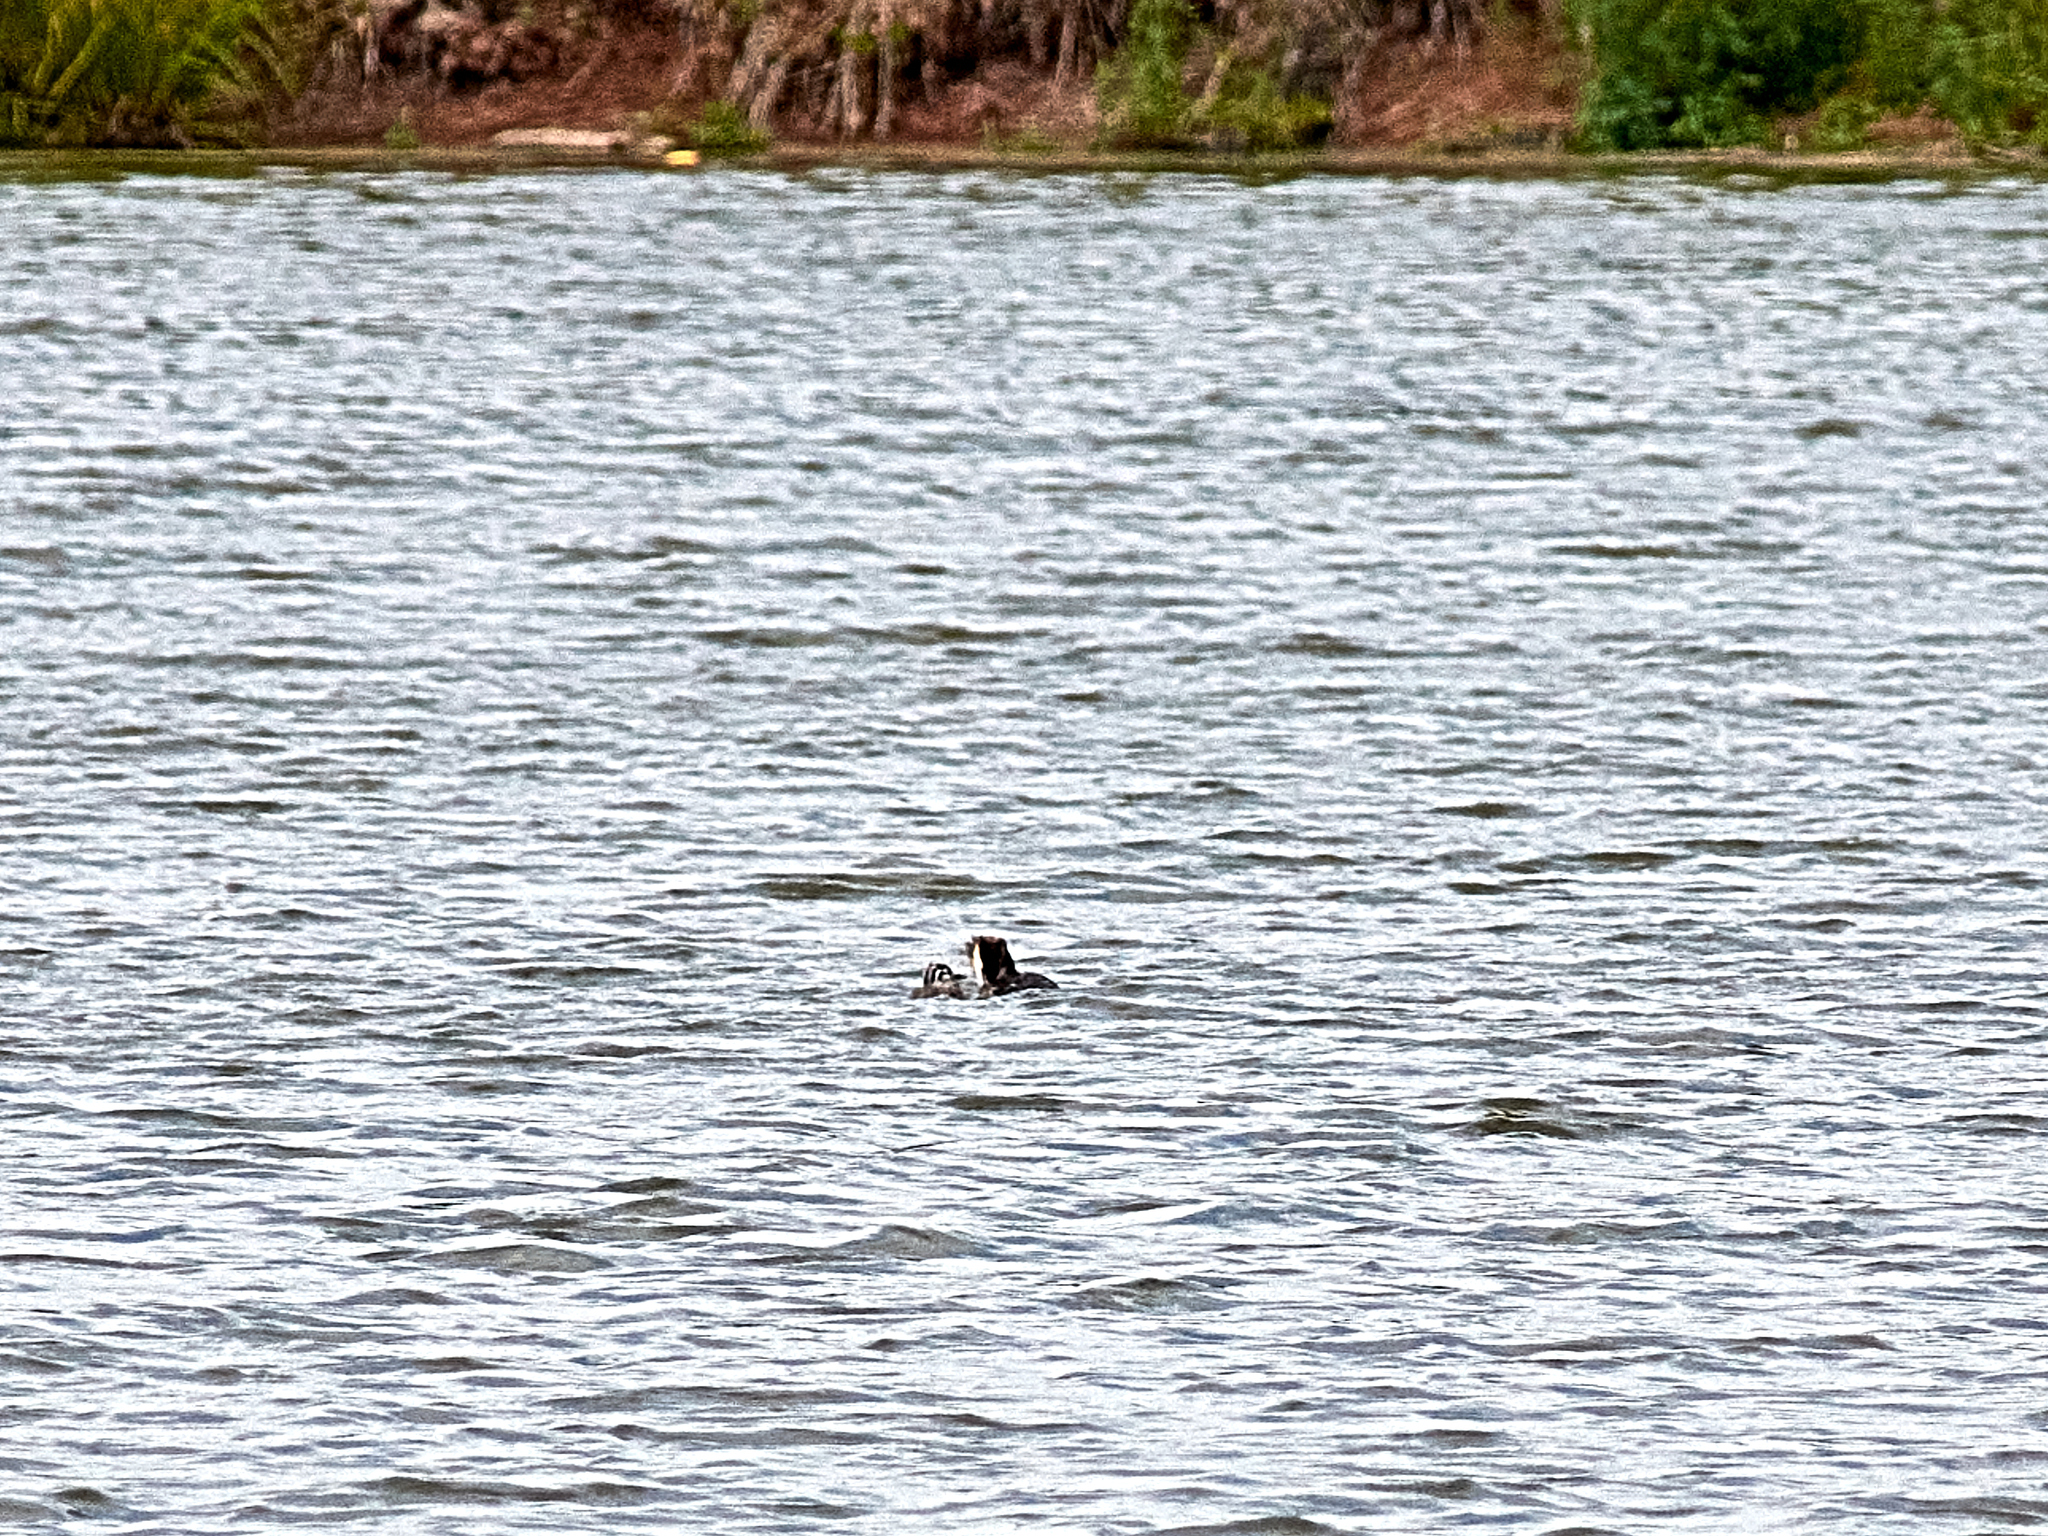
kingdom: Animalia
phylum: Chordata
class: Aves
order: Podicipediformes
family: Podicipedidae
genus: Podiceps
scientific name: Podiceps cristatus
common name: Great crested grebe
